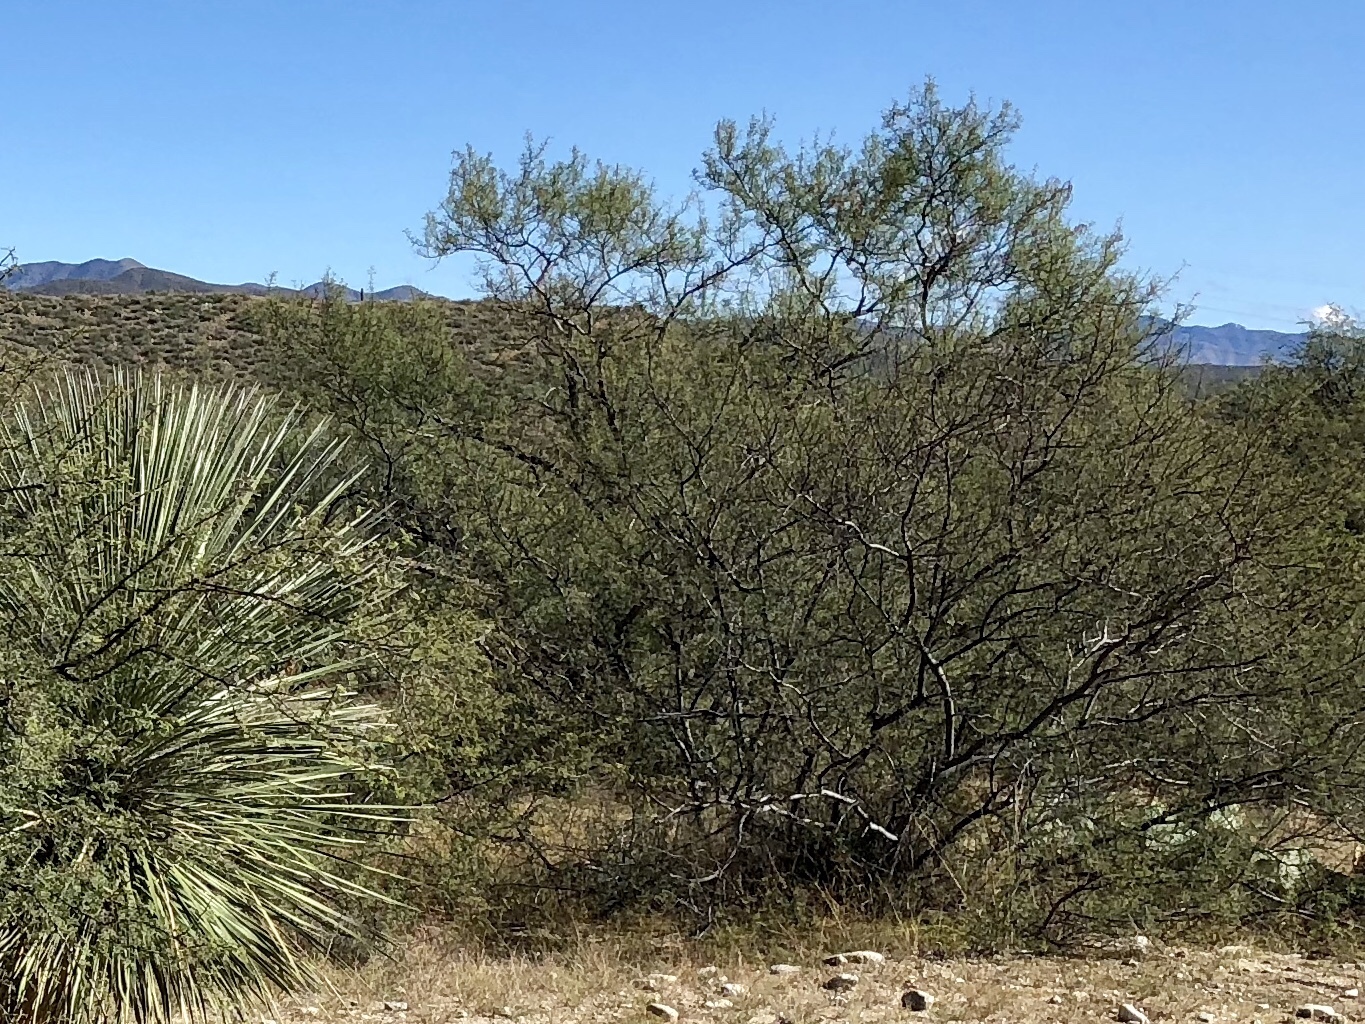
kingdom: Plantae
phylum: Tracheophyta
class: Magnoliopsida
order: Zygophyllales
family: Zygophyllaceae
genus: Larrea
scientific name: Larrea tridentata
